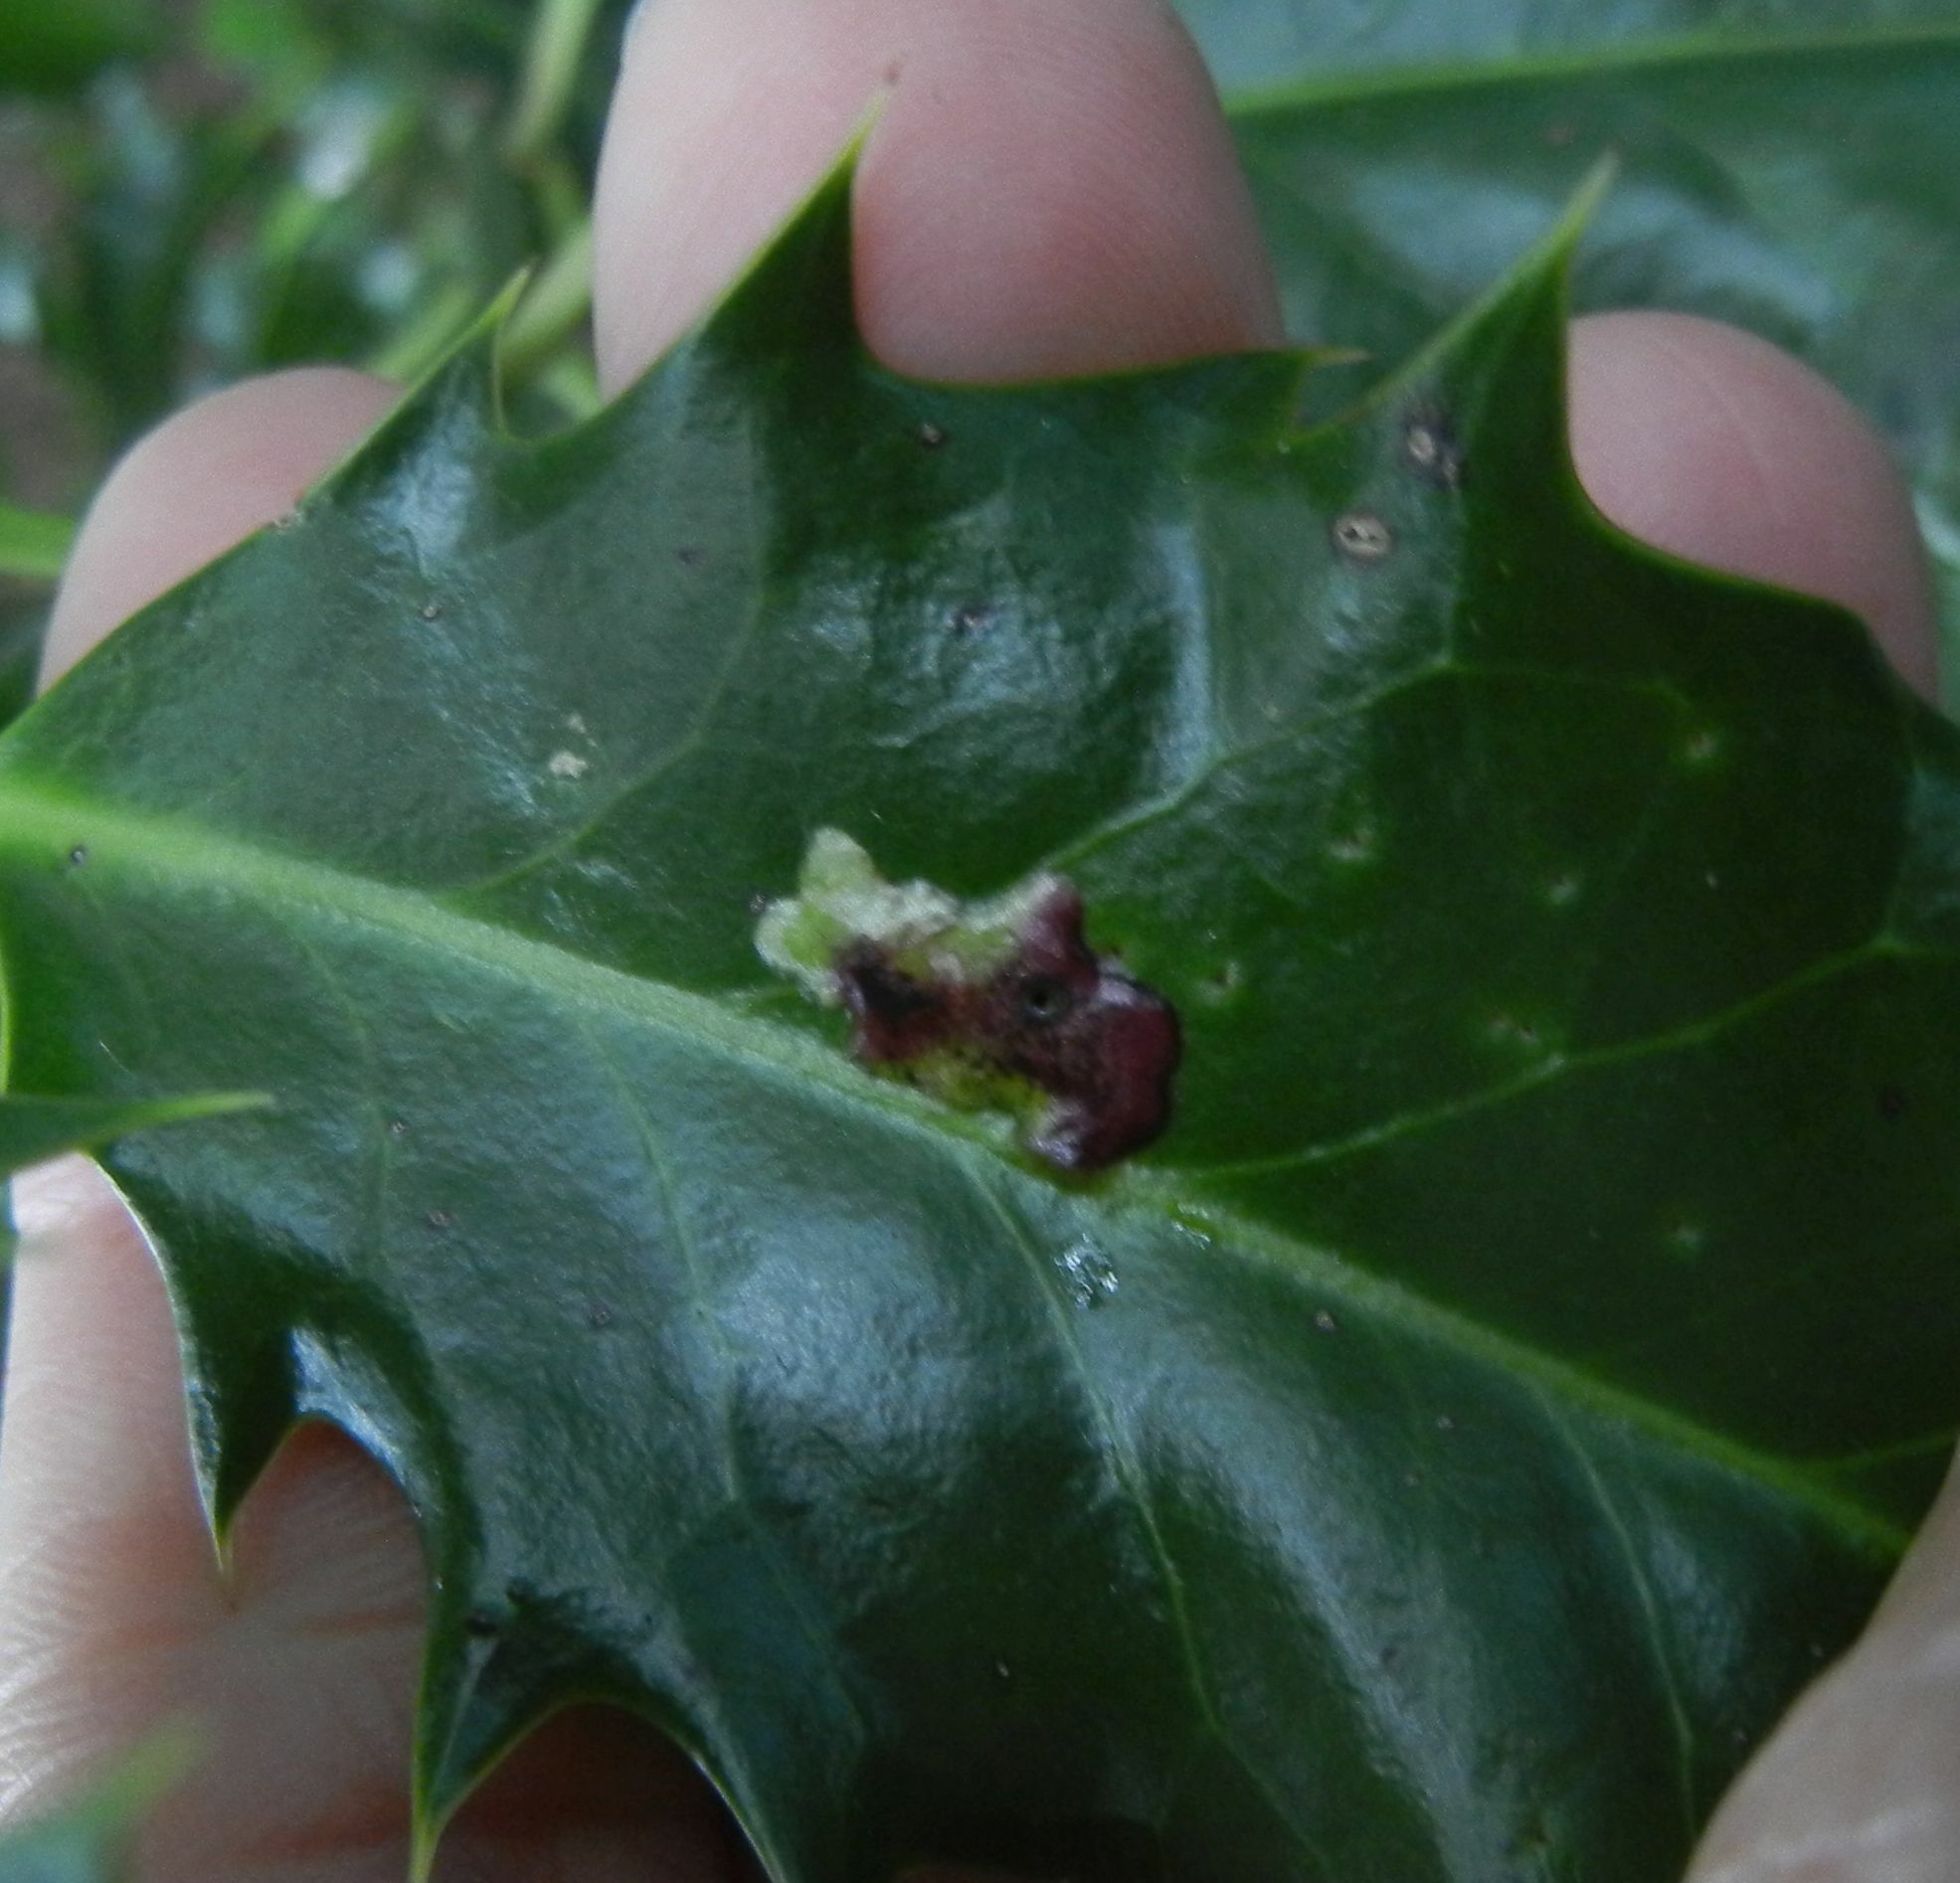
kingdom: Animalia
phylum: Arthropoda
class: Insecta
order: Diptera
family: Agromyzidae
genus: Phytomyza
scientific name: Phytomyza ilicis
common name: Holly leafminer
